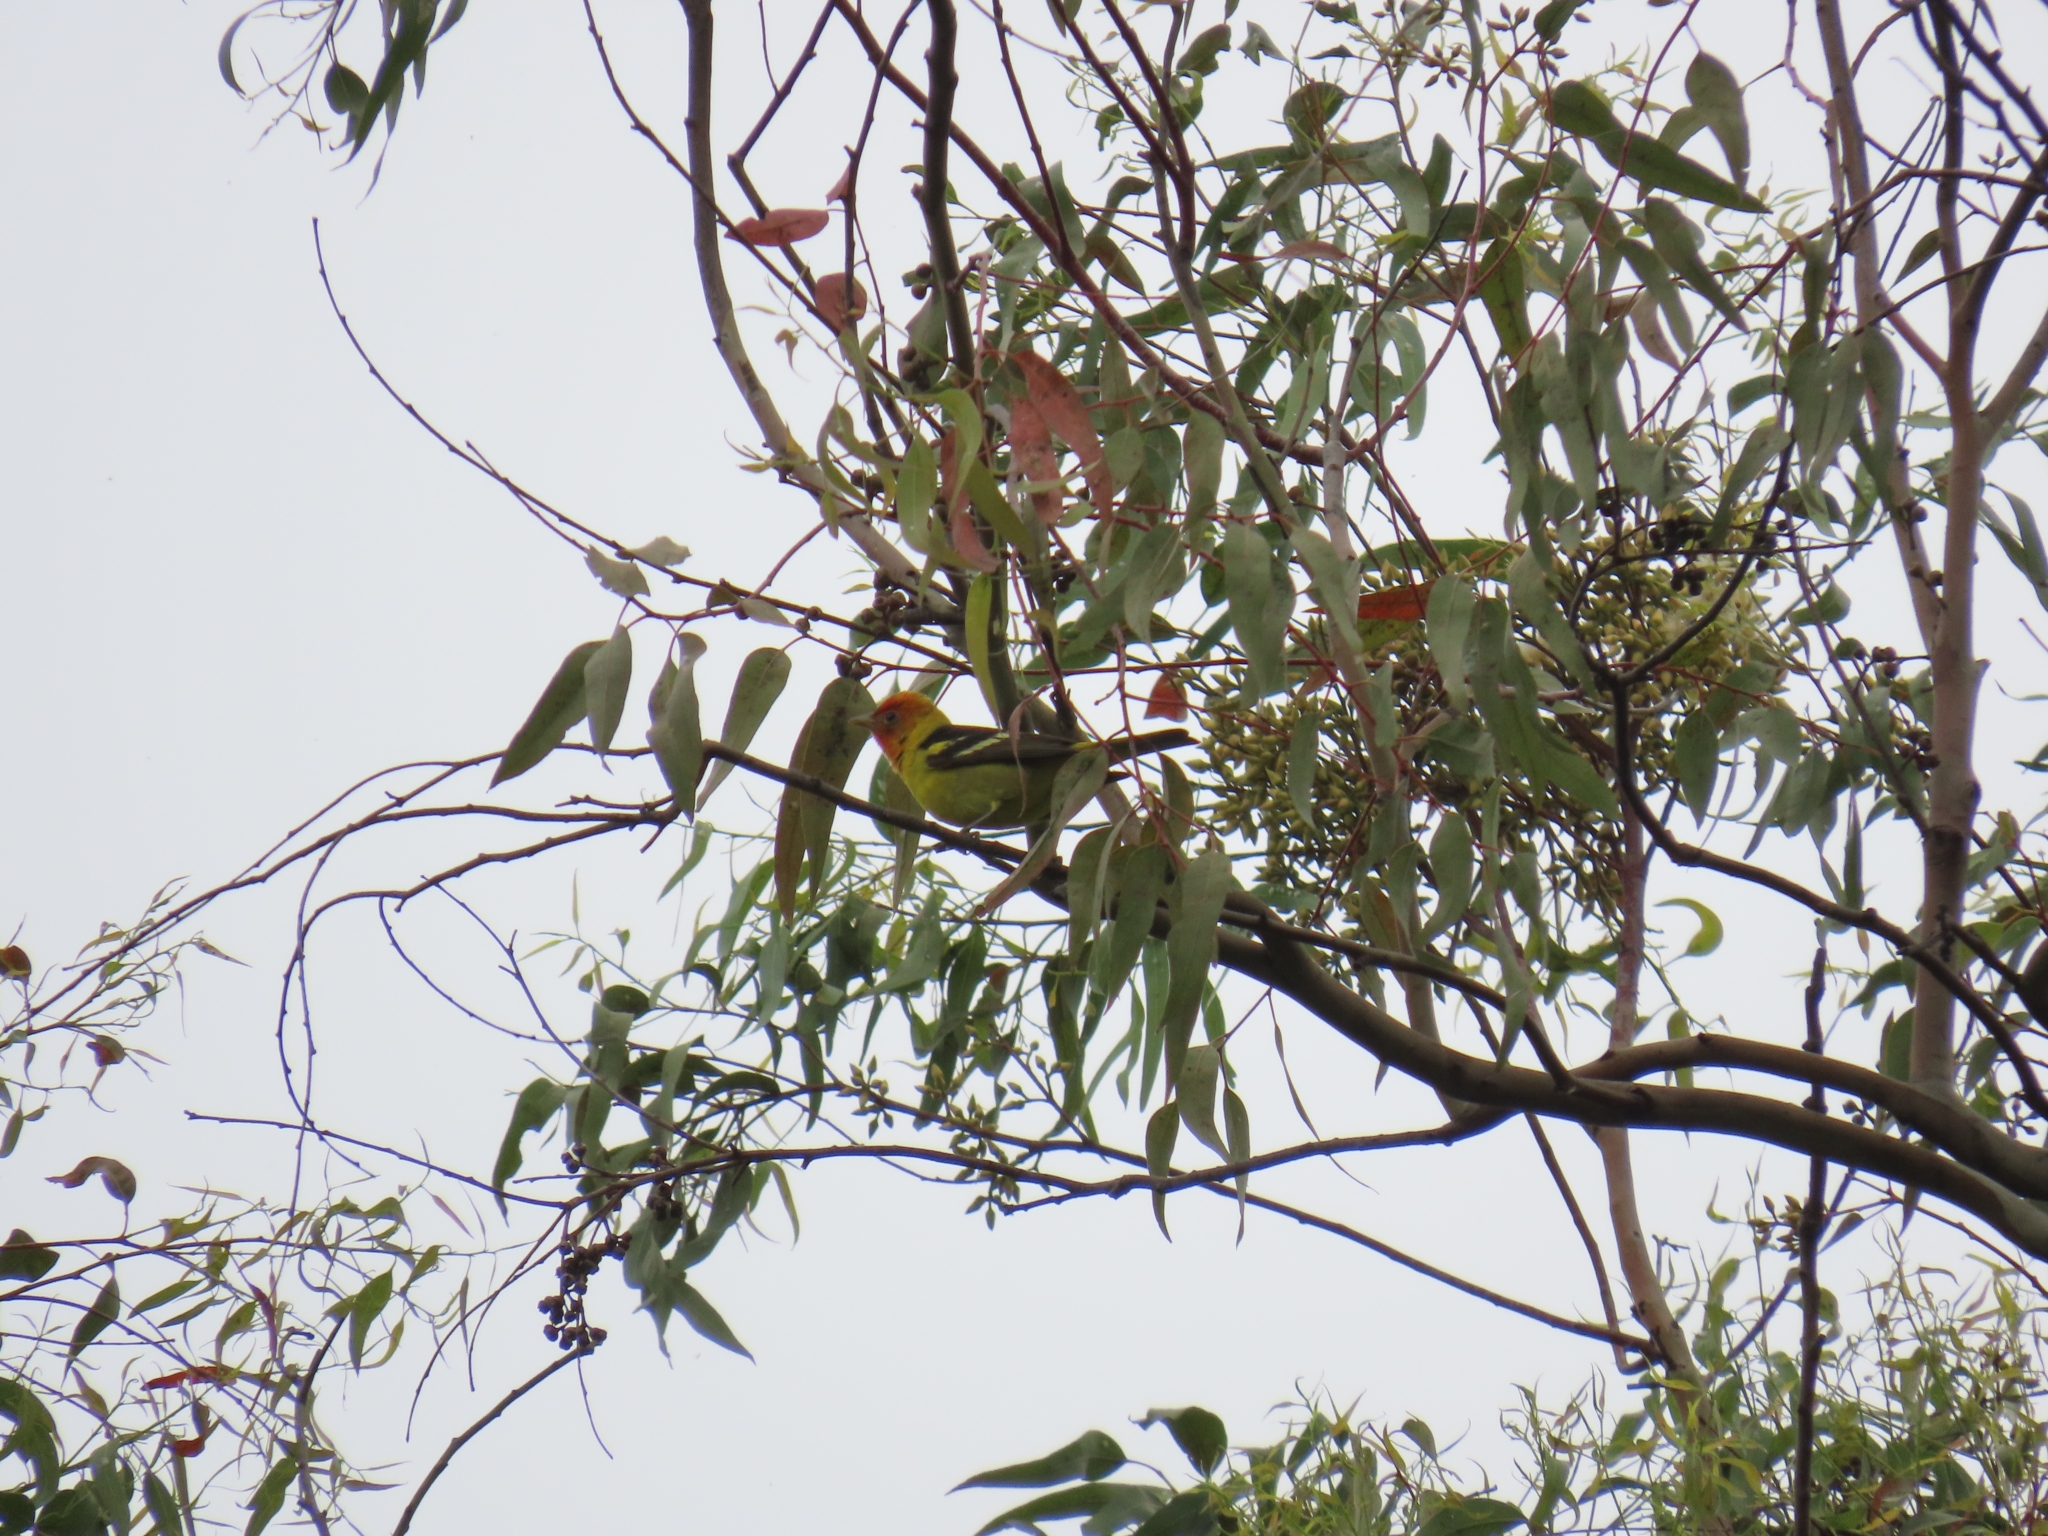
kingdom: Animalia
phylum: Chordata
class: Aves
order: Passeriformes
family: Cardinalidae
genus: Piranga
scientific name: Piranga ludoviciana
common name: Western tanager
